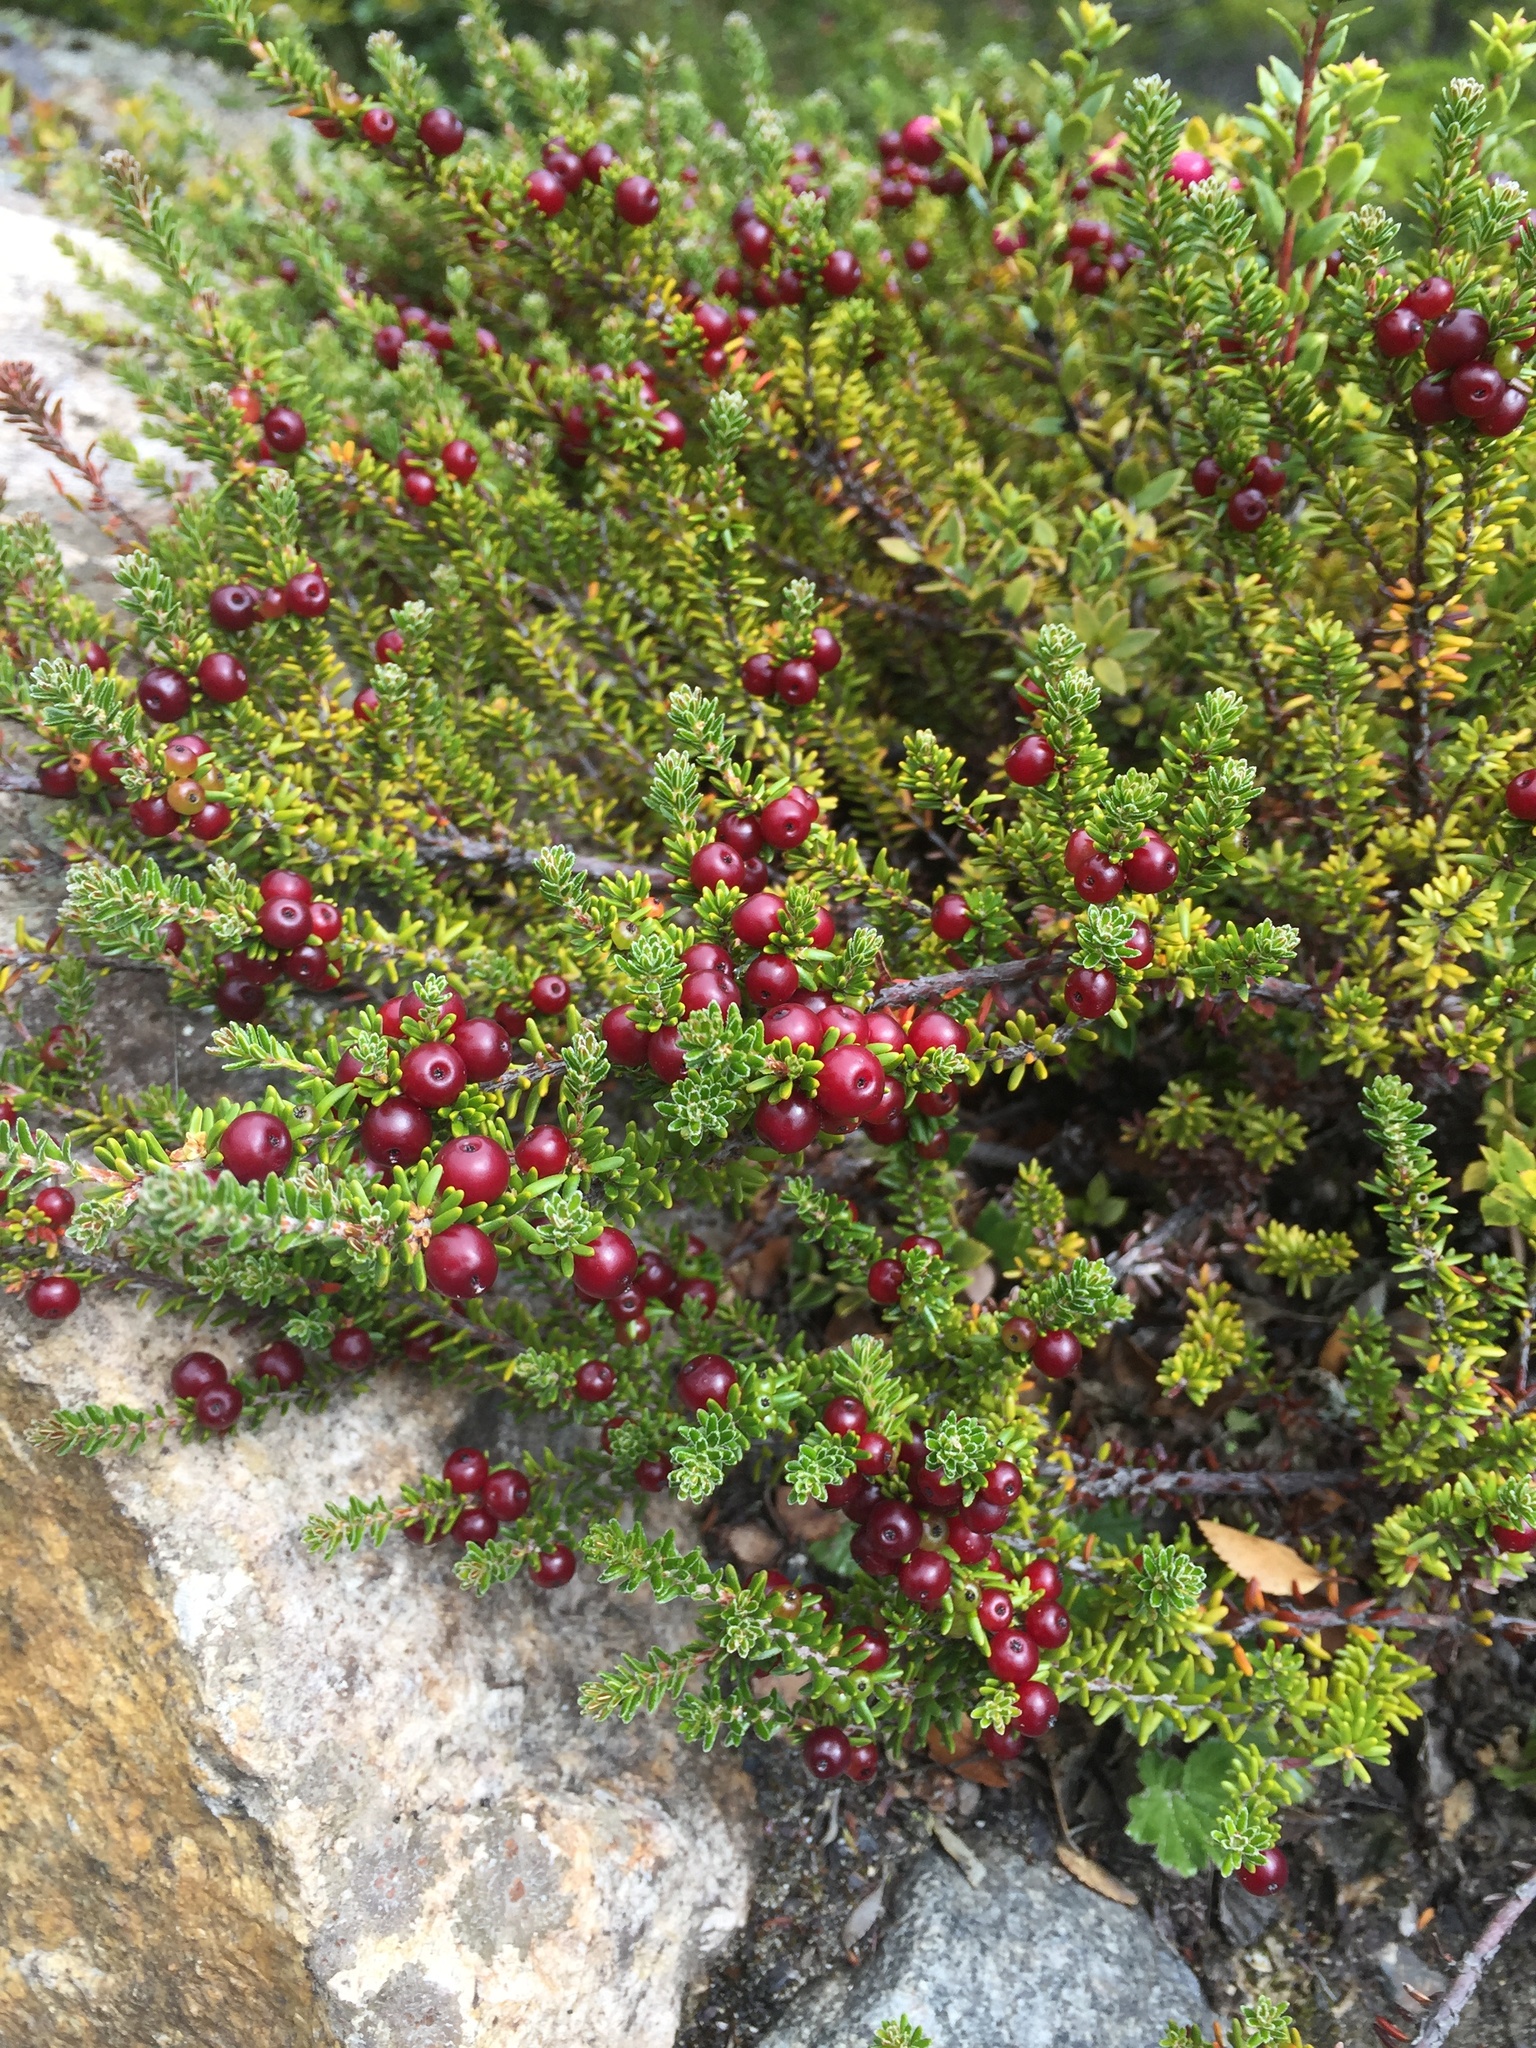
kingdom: Plantae
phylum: Tracheophyta
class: Magnoliopsida
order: Ericales
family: Ericaceae
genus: Empetrum
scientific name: Empetrum rubrum
